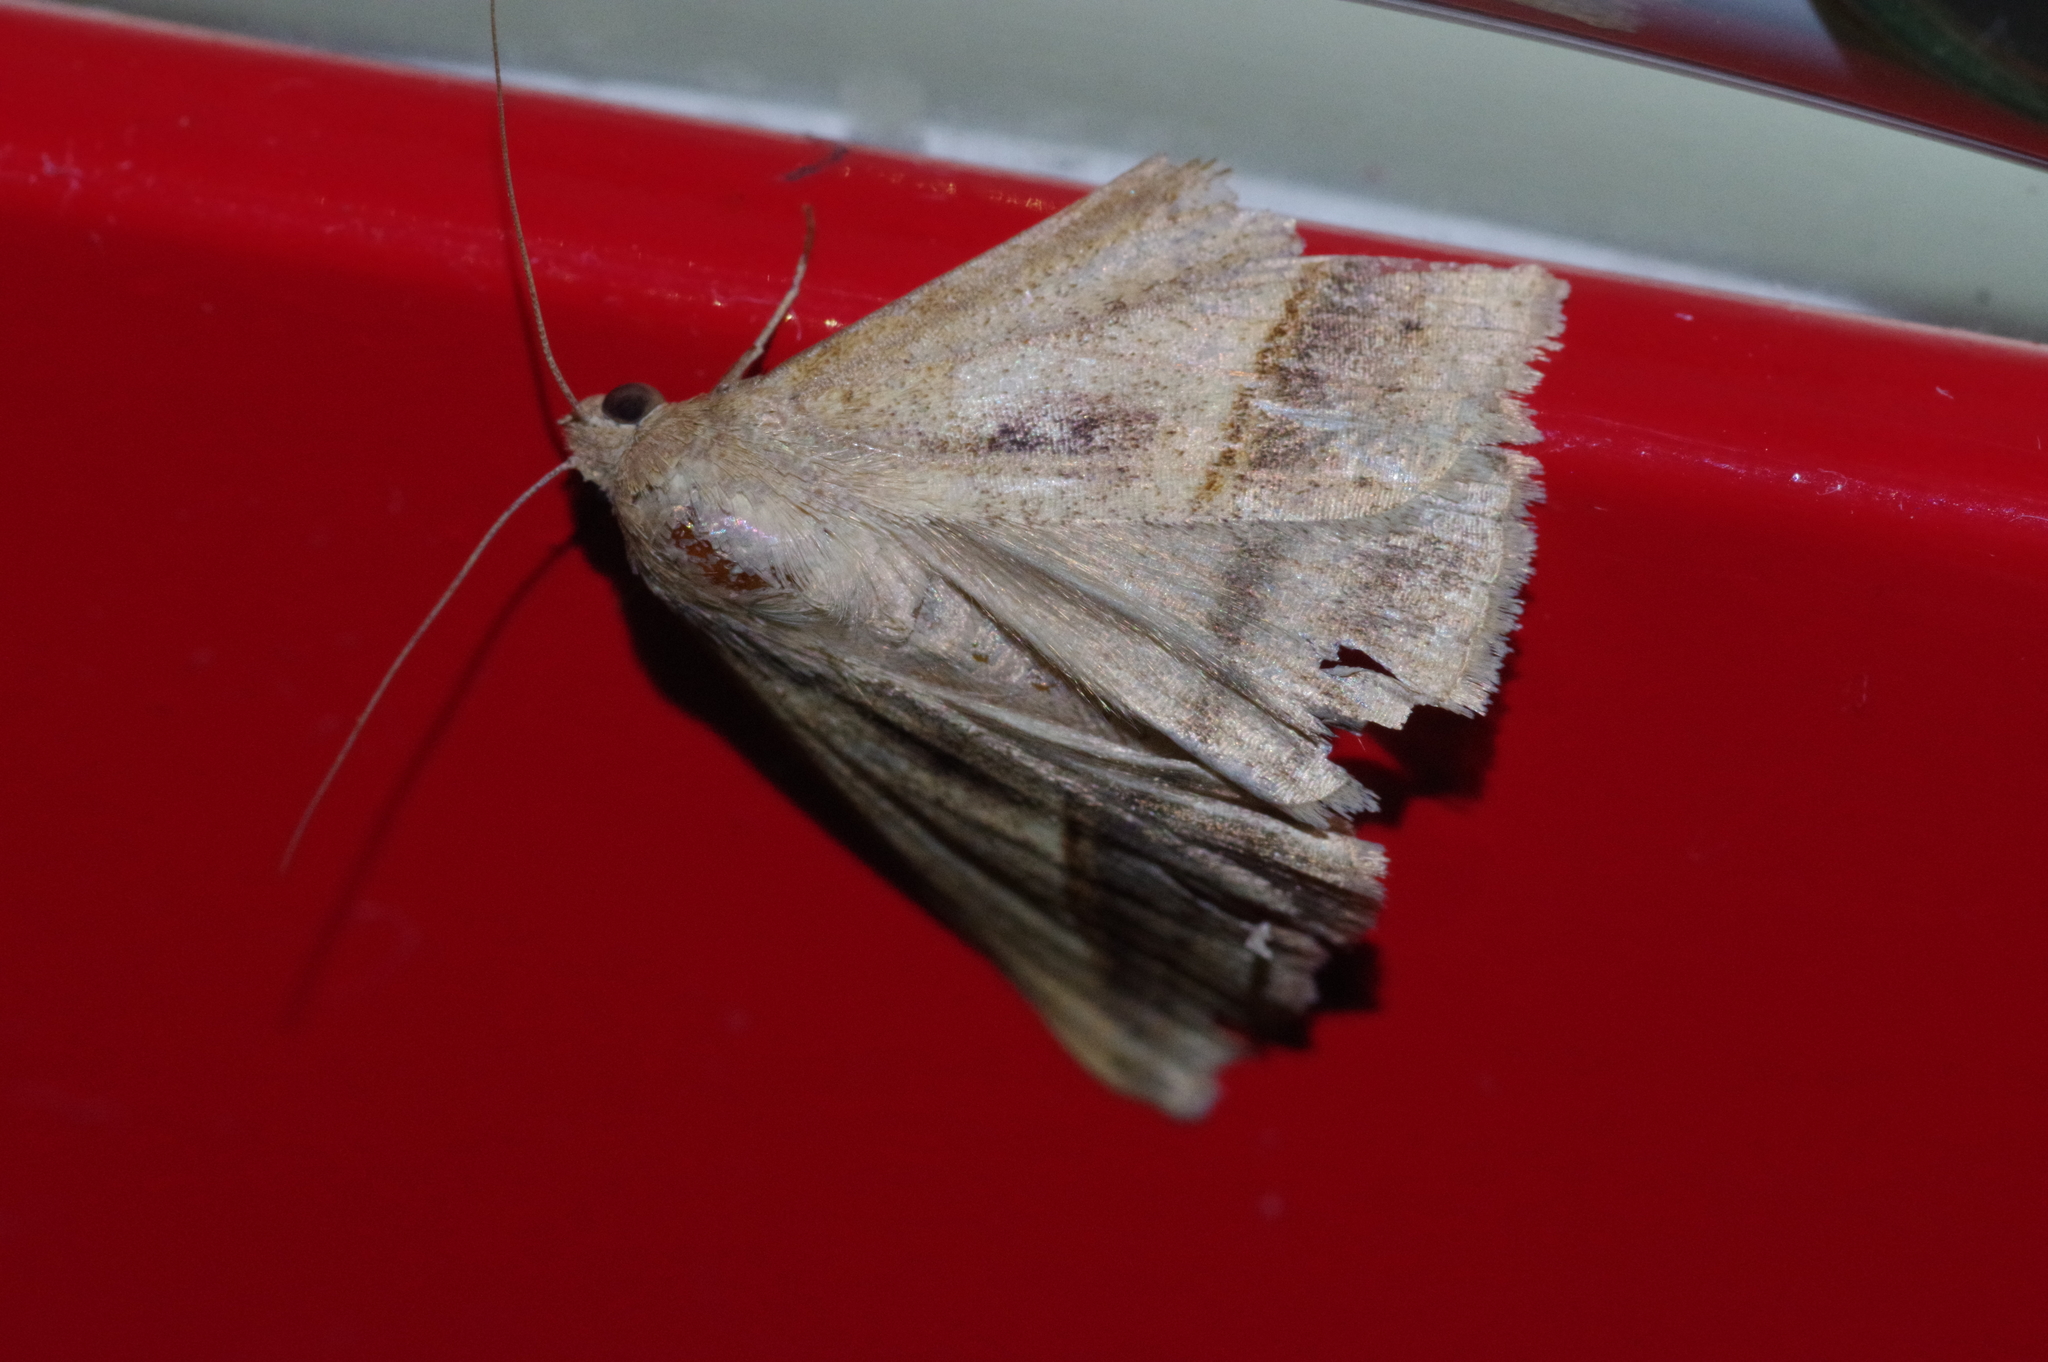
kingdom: Animalia
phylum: Arthropoda
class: Insecta
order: Lepidoptera
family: Erebidae
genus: Mocis
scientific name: Mocis frugalis
